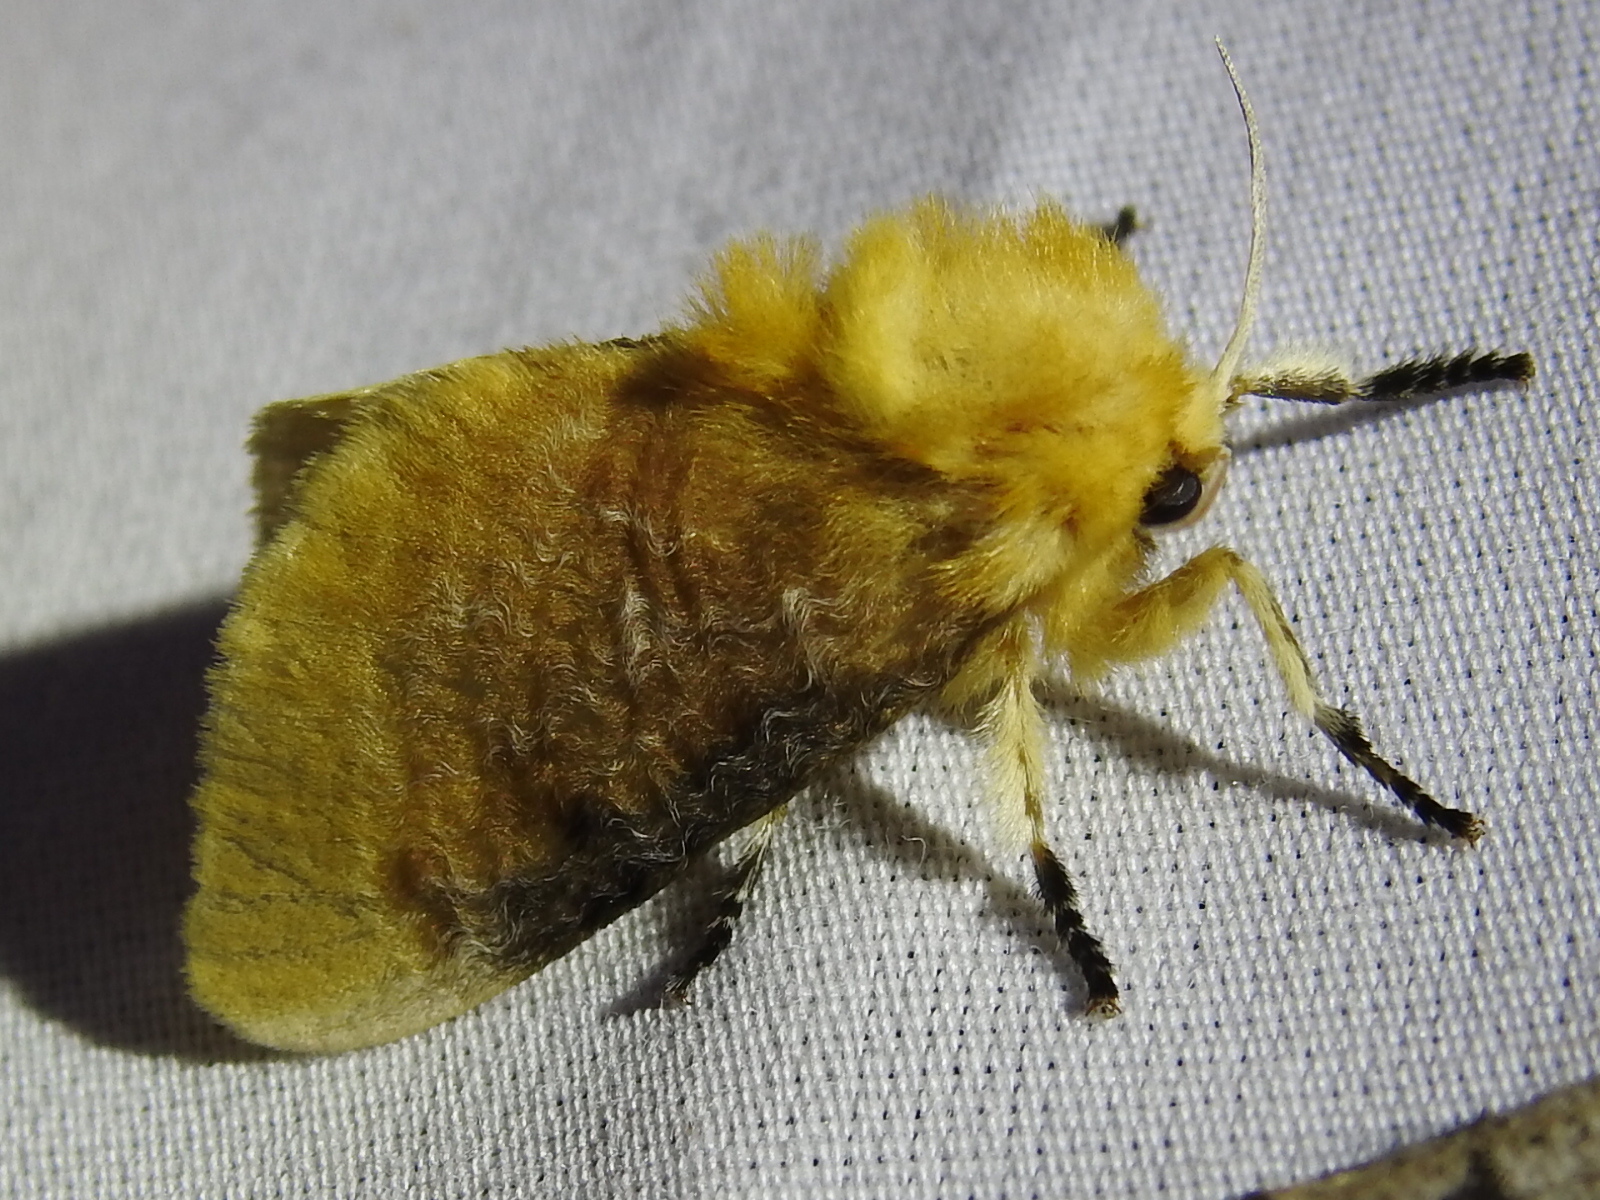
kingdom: Animalia
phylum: Arthropoda
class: Insecta
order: Lepidoptera
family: Megalopygidae
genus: Megalopyge
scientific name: Megalopyge opercularis
